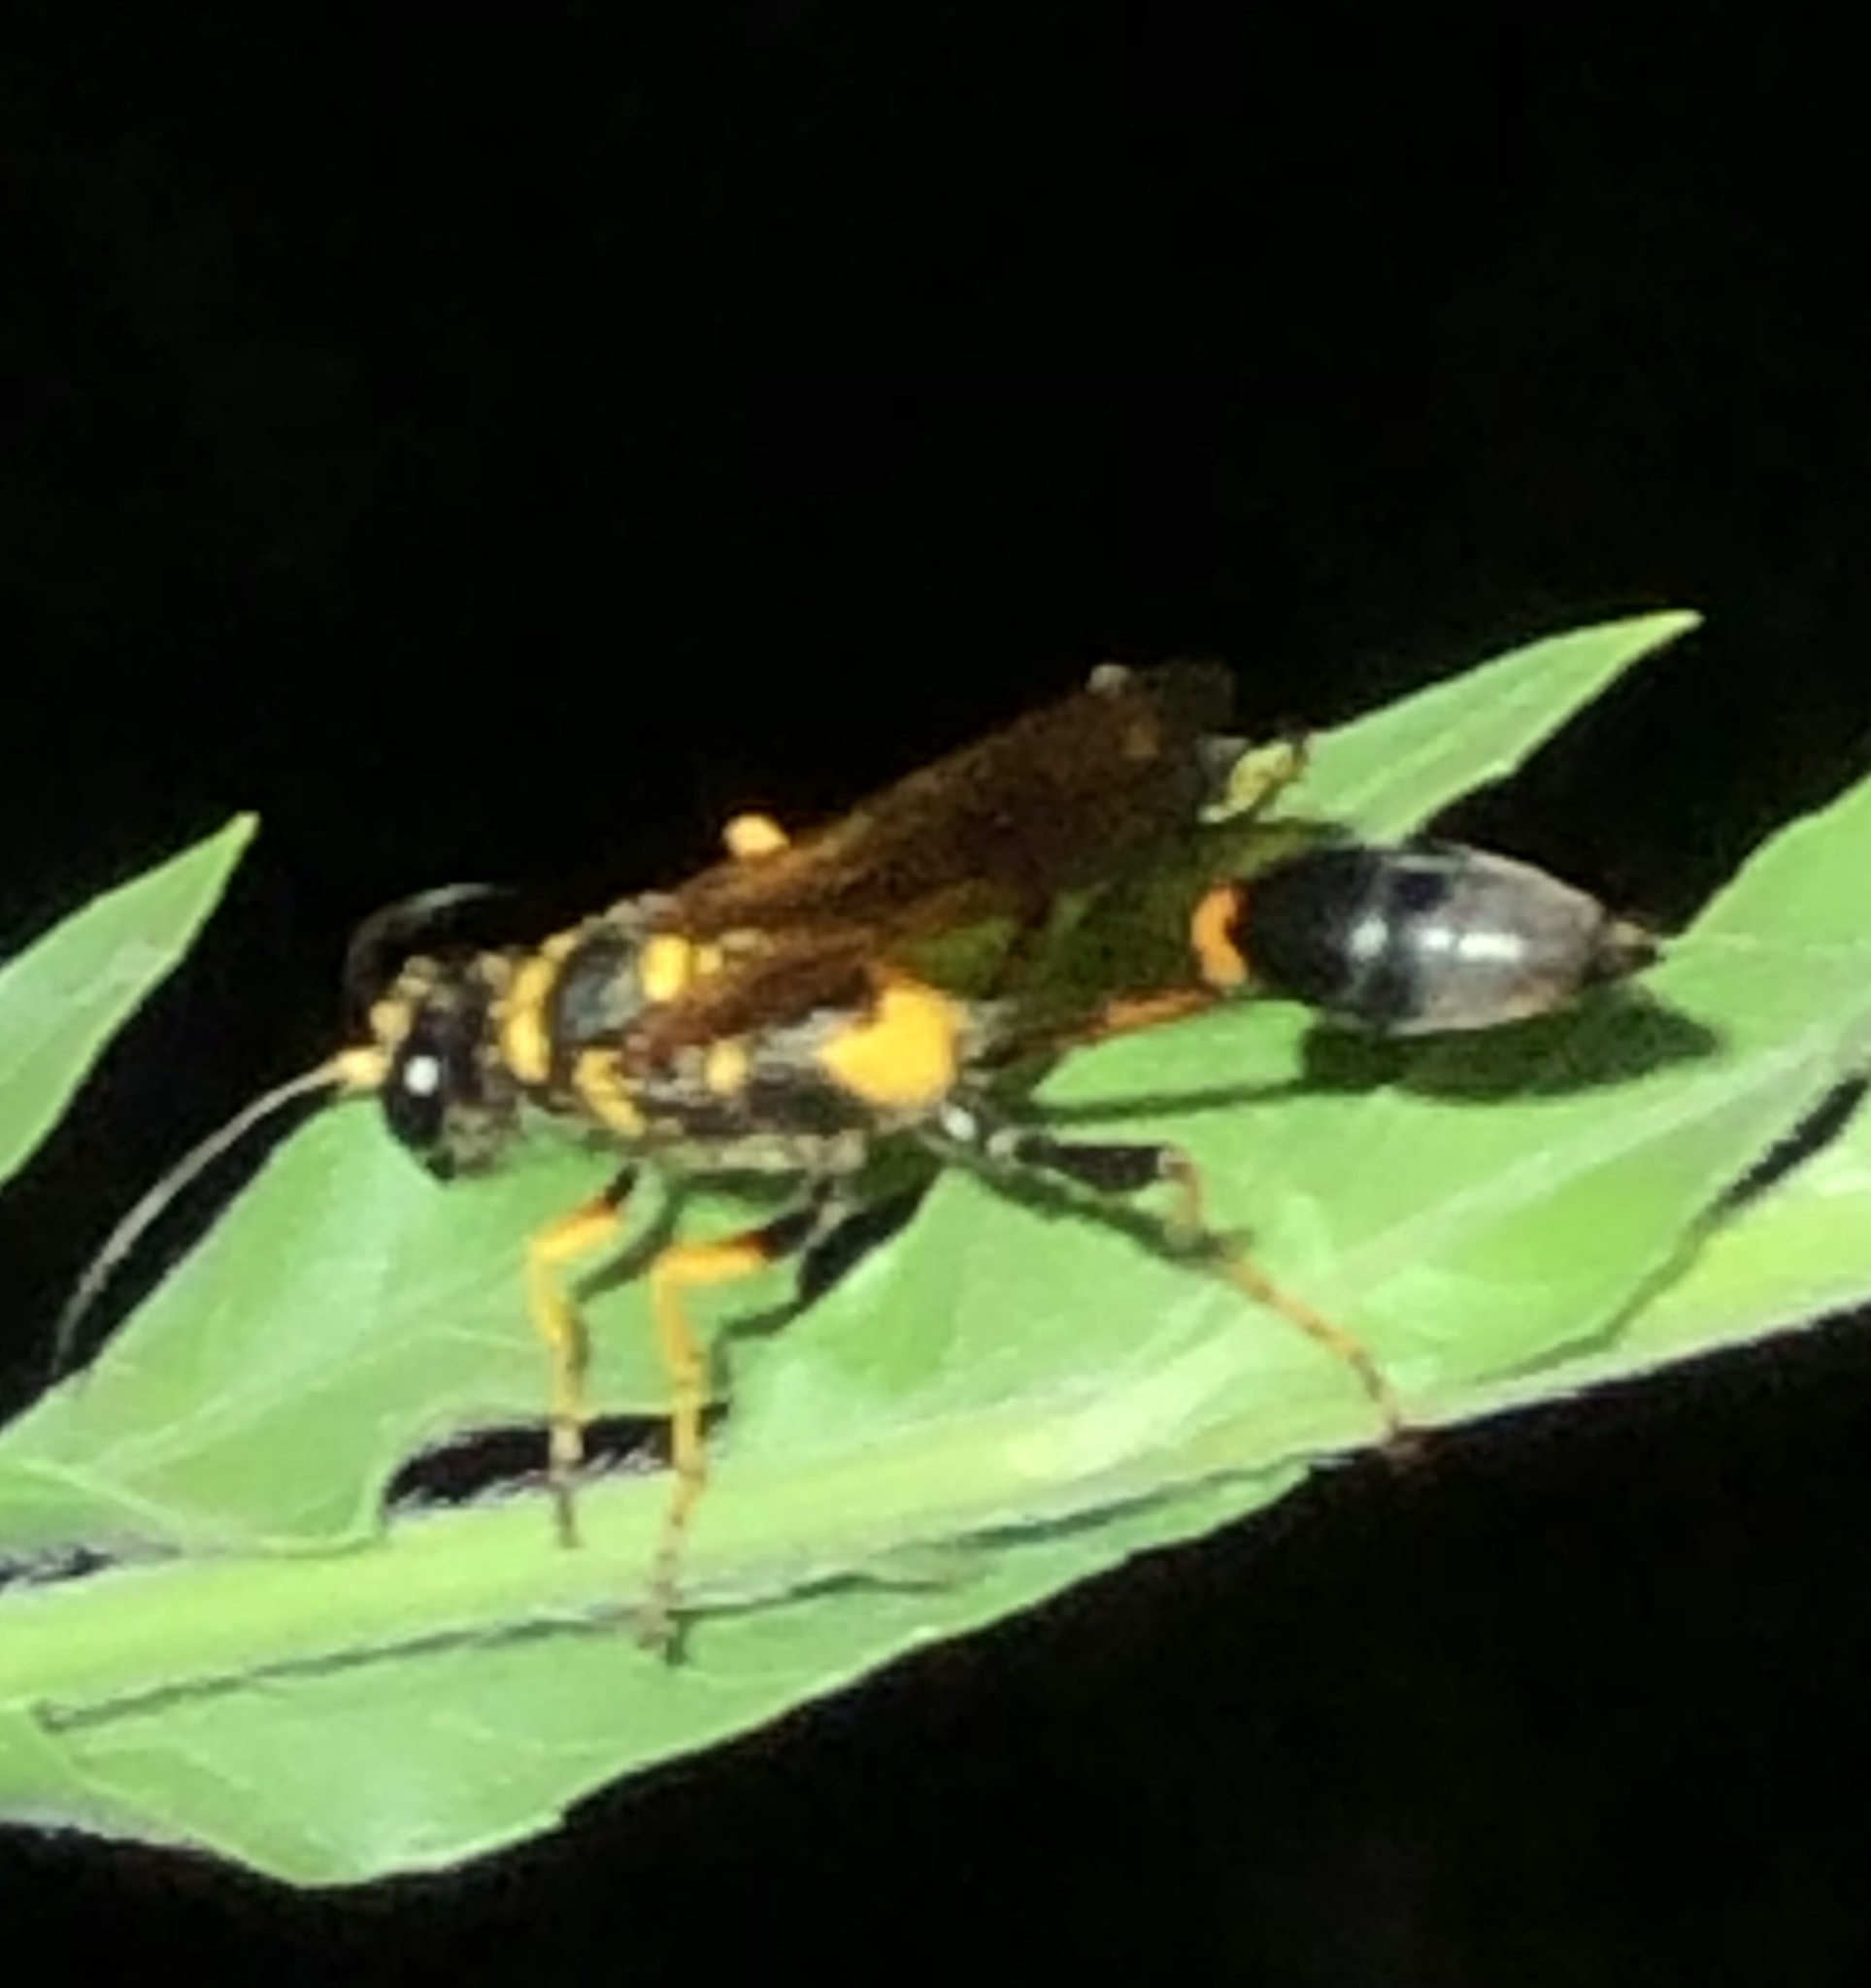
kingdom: Animalia
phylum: Arthropoda
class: Insecta
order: Hymenoptera
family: Sphecidae
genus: Sceliphron
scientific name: Sceliphron caementarium
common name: Mud dauber
